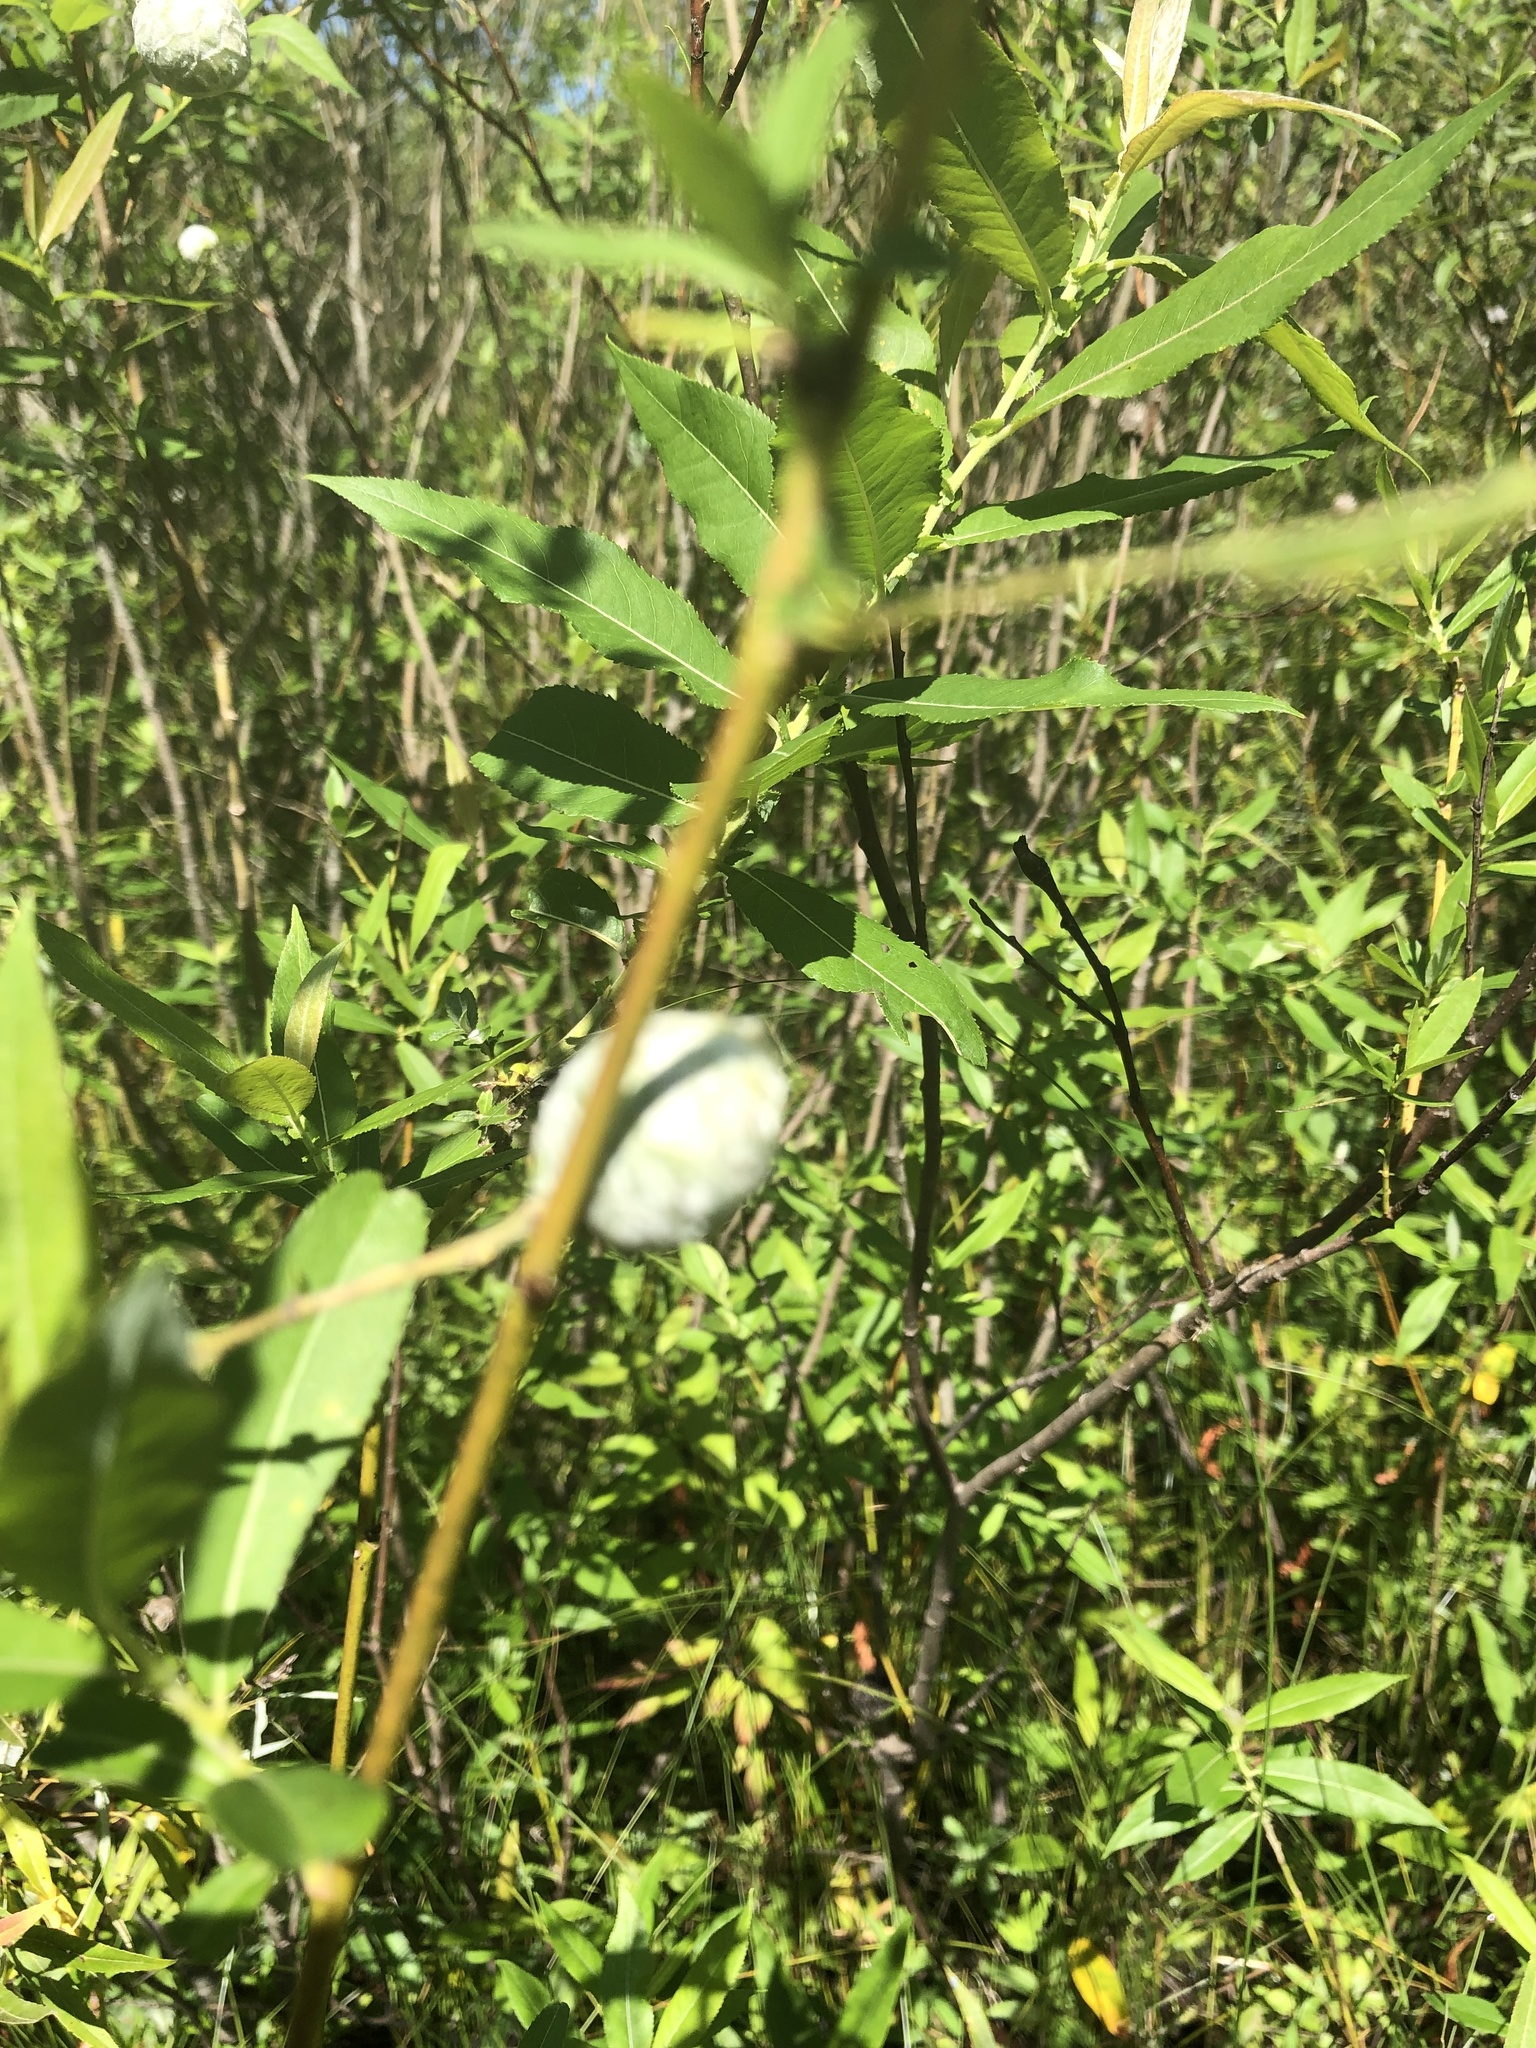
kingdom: Animalia
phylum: Arthropoda
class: Insecta
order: Diptera
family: Cecidomyiidae
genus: Rabdophaga
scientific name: Rabdophaga strobiloides
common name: Willow pinecone gall midge
